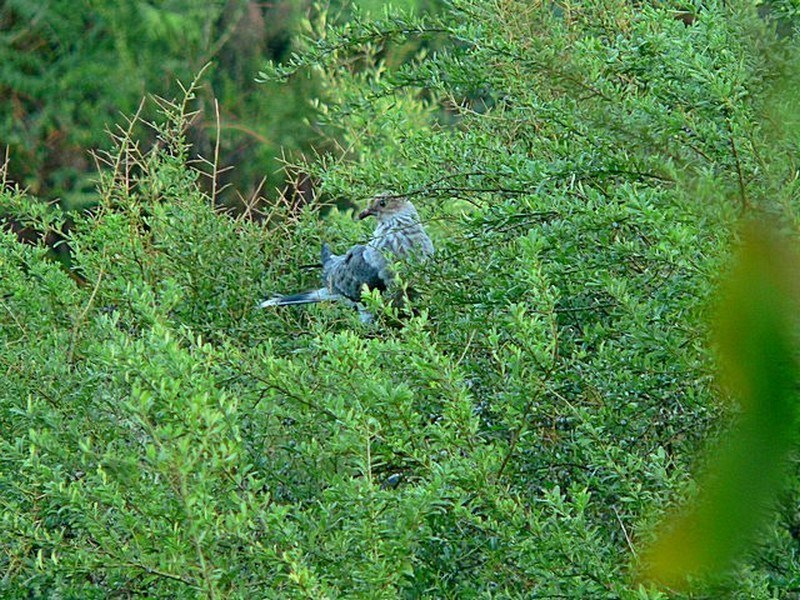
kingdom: Animalia
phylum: Chordata
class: Aves
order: Columbiformes
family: Columbidae
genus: Lopholaimus
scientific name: Lopholaimus antarcticus
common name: Topknot pigeon
